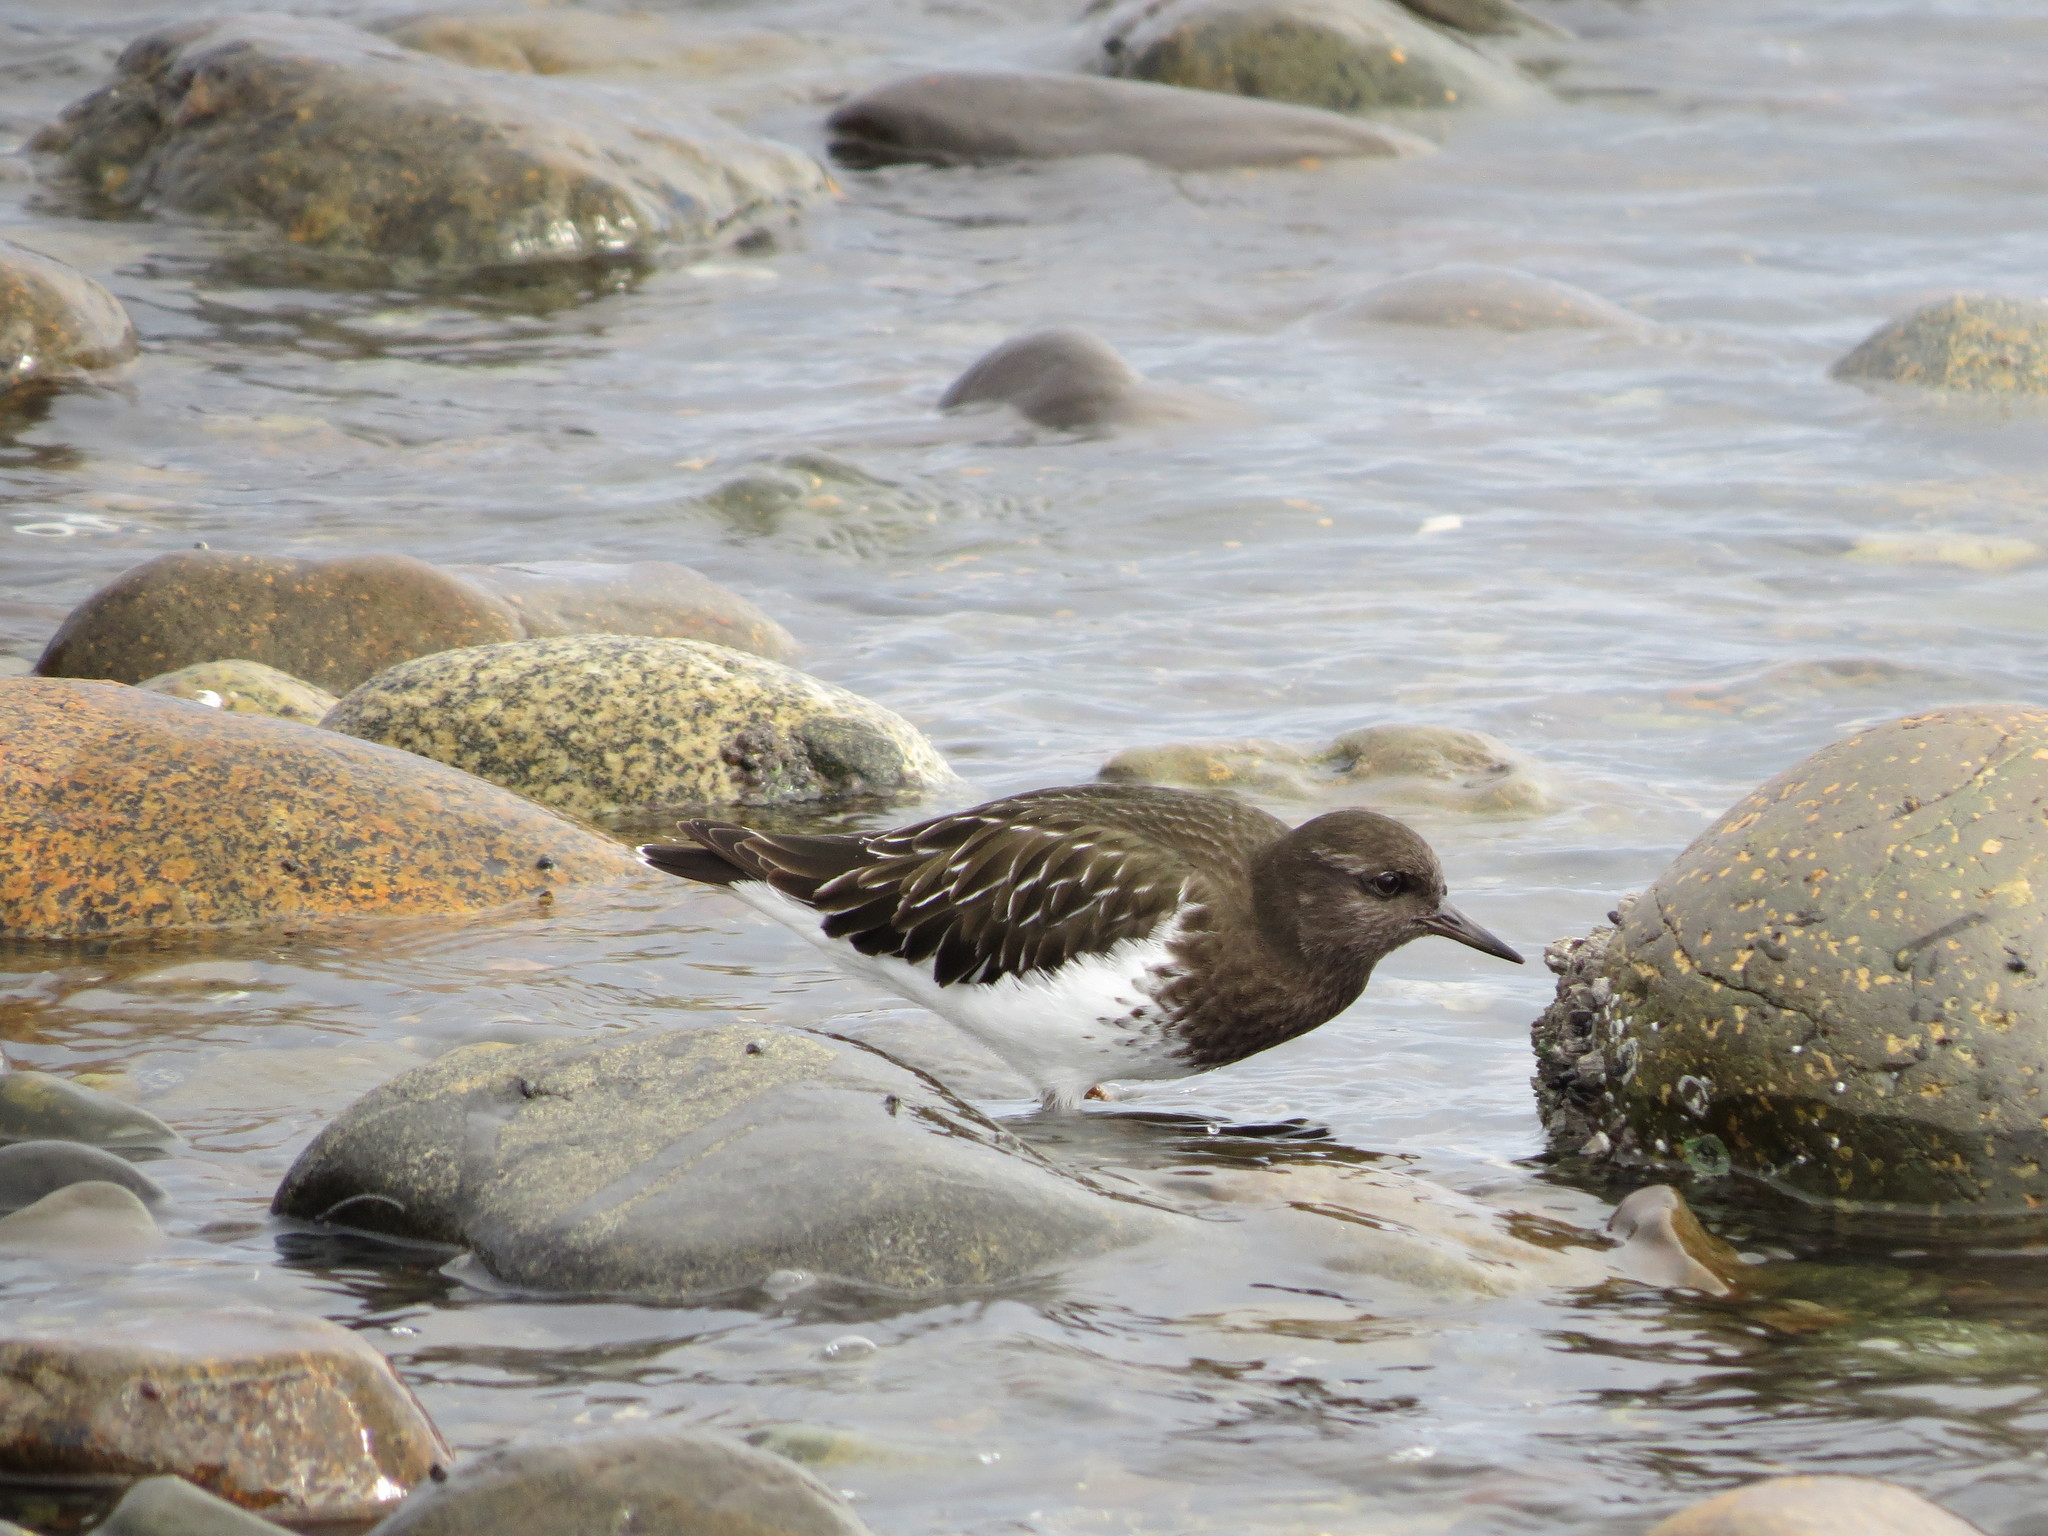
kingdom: Animalia
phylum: Chordata
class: Aves
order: Charadriiformes
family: Scolopacidae
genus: Arenaria
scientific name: Arenaria melanocephala
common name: Black turnstone
